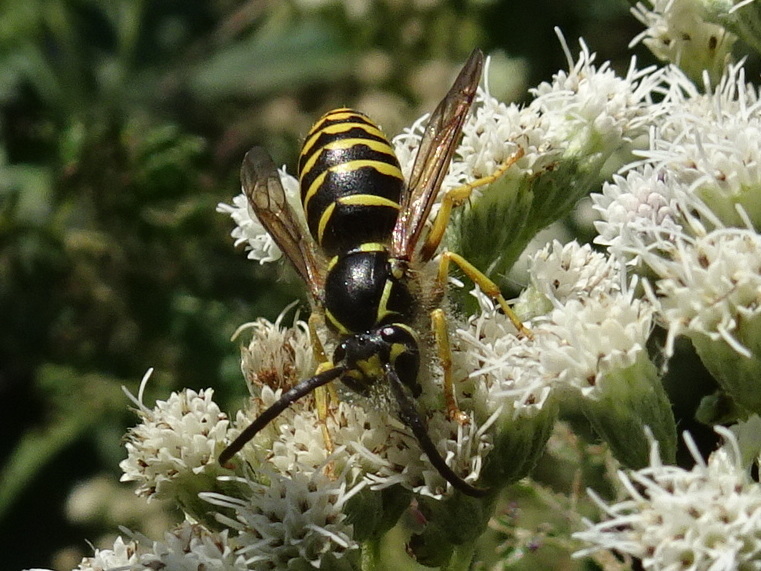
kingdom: Animalia
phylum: Arthropoda
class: Insecta
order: Hymenoptera
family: Vespidae
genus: Dolichovespula
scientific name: Dolichovespula arenaria
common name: Aerial yellowjacket
